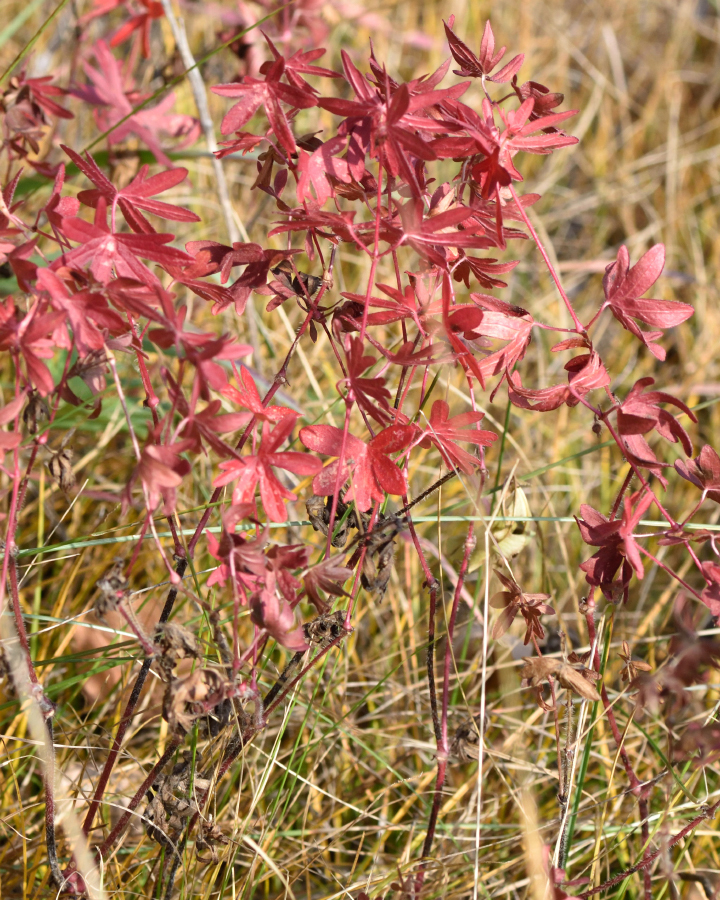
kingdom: Plantae
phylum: Tracheophyta
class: Magnoliopsida
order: Geraniales
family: Geraniaceae
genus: Geranium
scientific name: Geranium sanguineum
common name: Bloody crane's-bill
